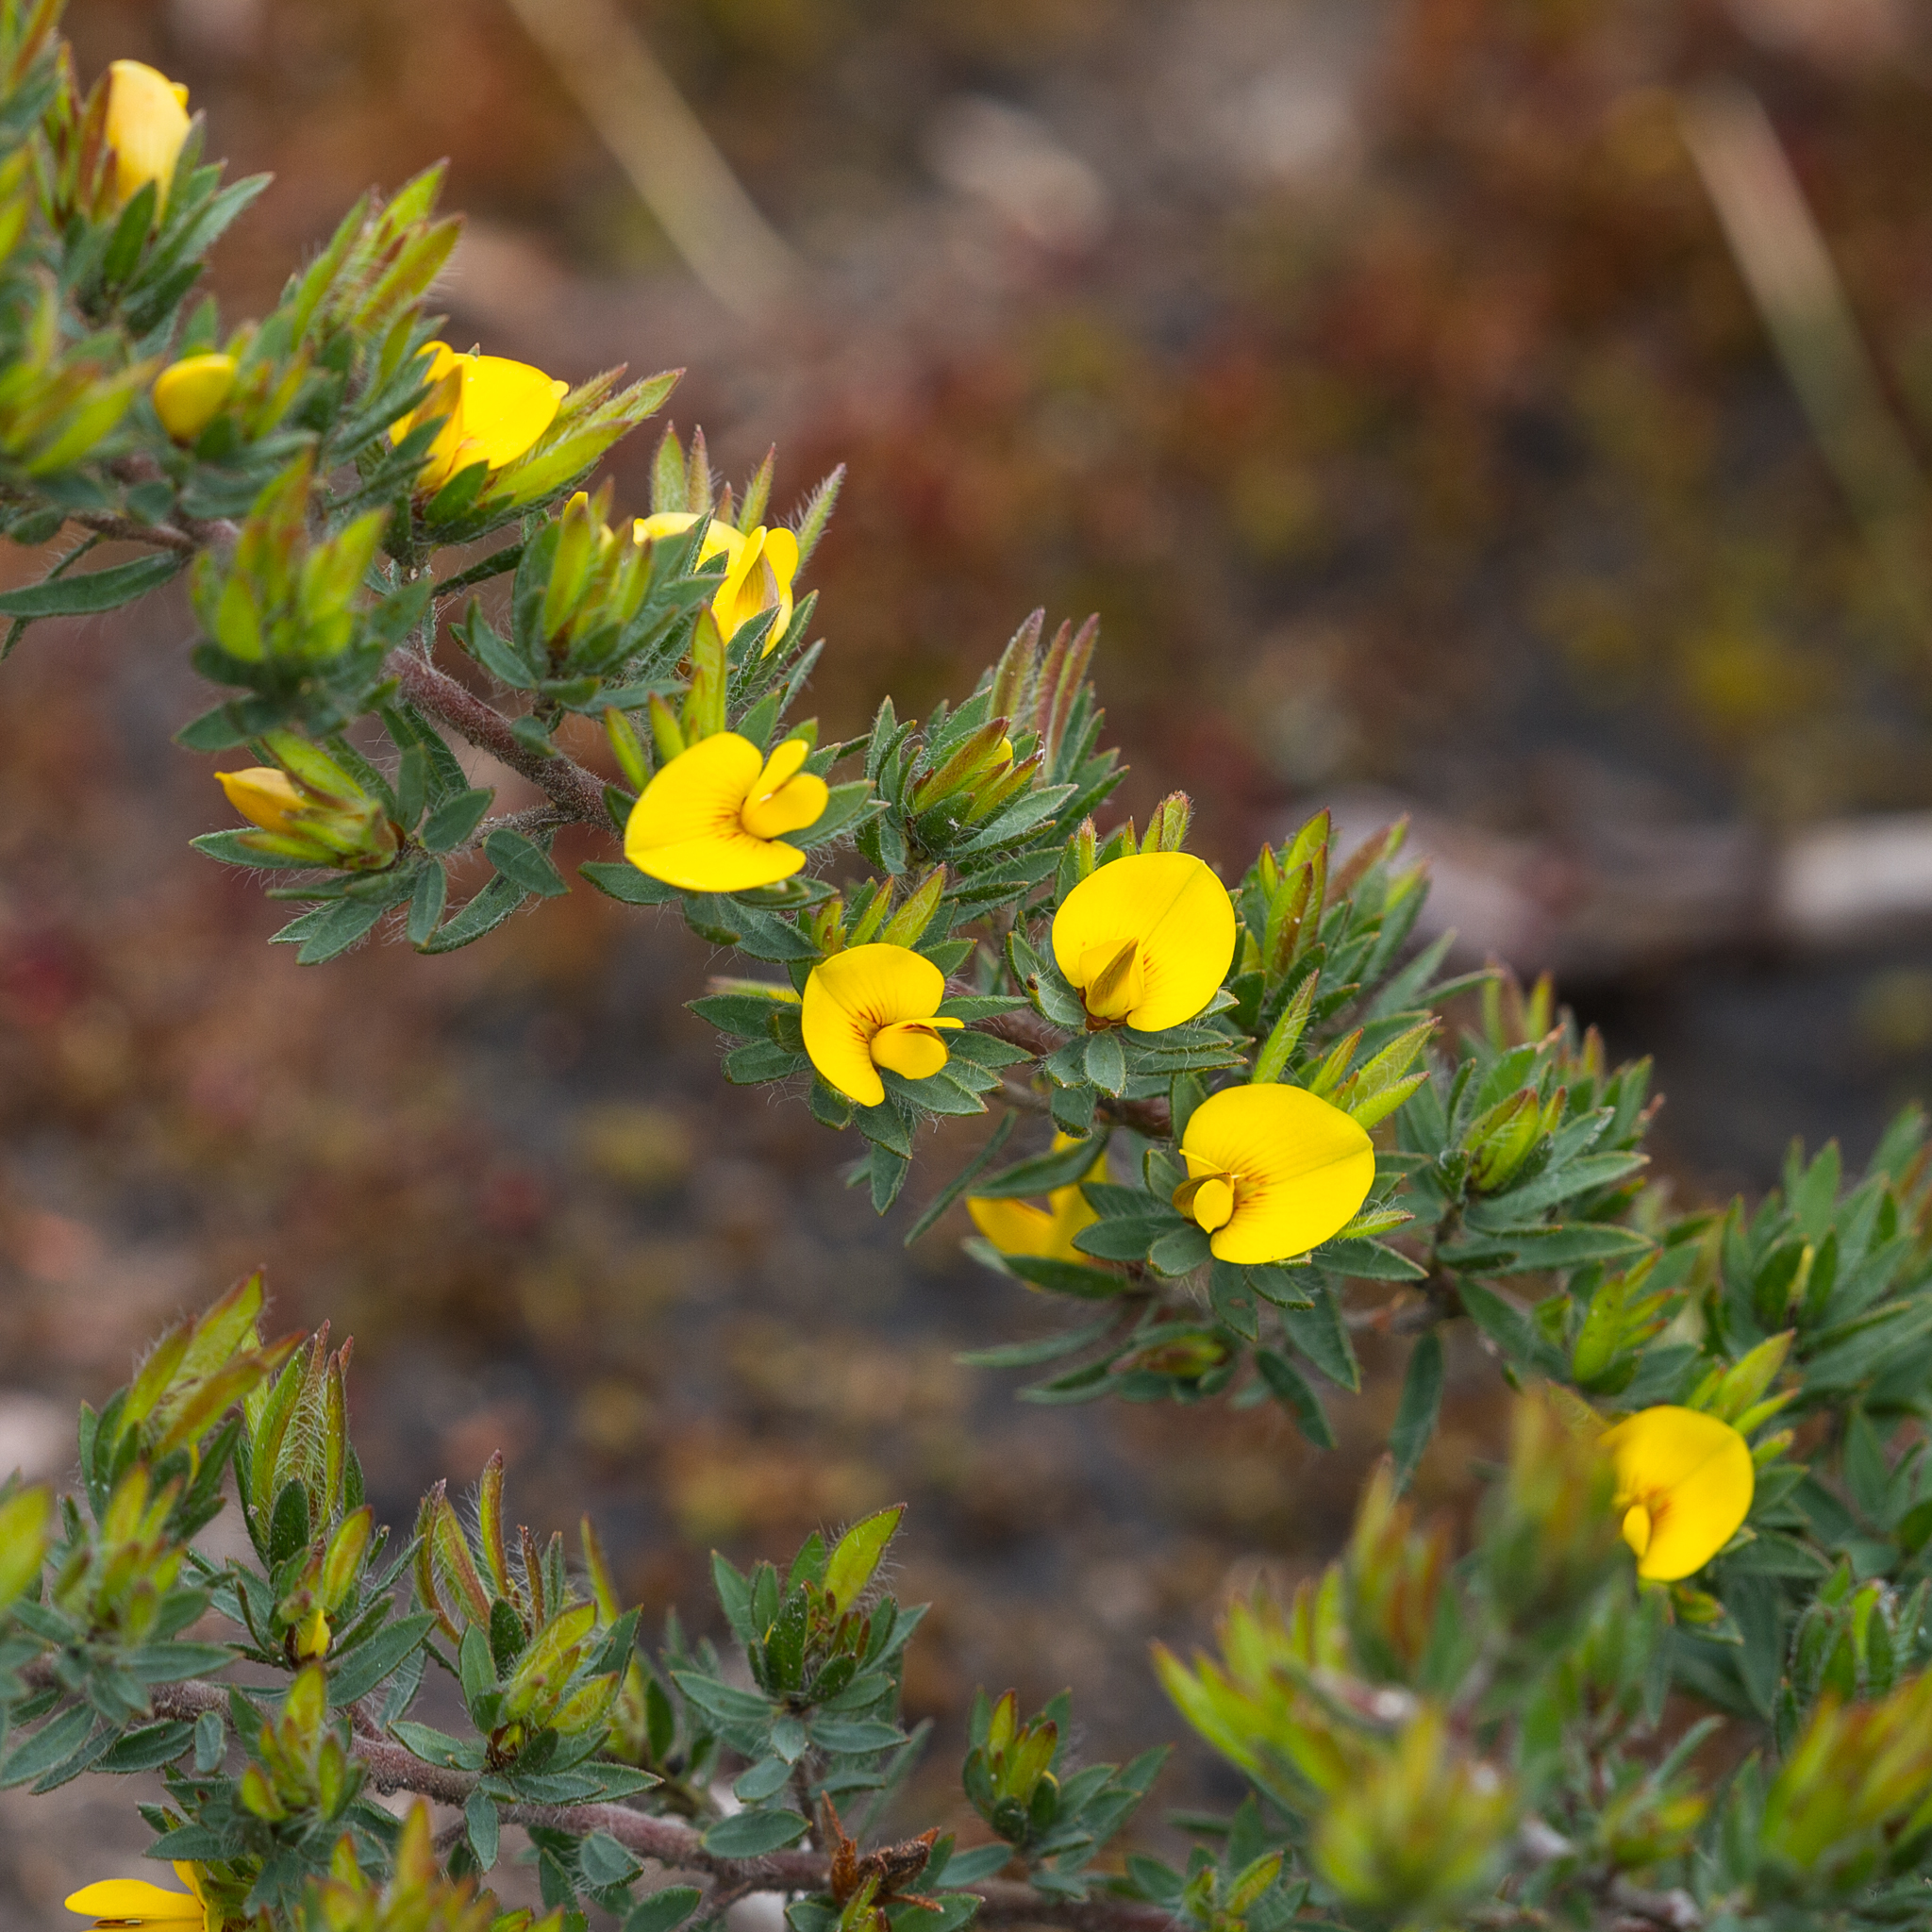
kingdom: Plantae
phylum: Tracheophyta
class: Magnoliopsida
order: Fabales
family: Fabaceae
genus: Pultenaea
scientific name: Pultenaea involucrata
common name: Mount lofty bush-pea
